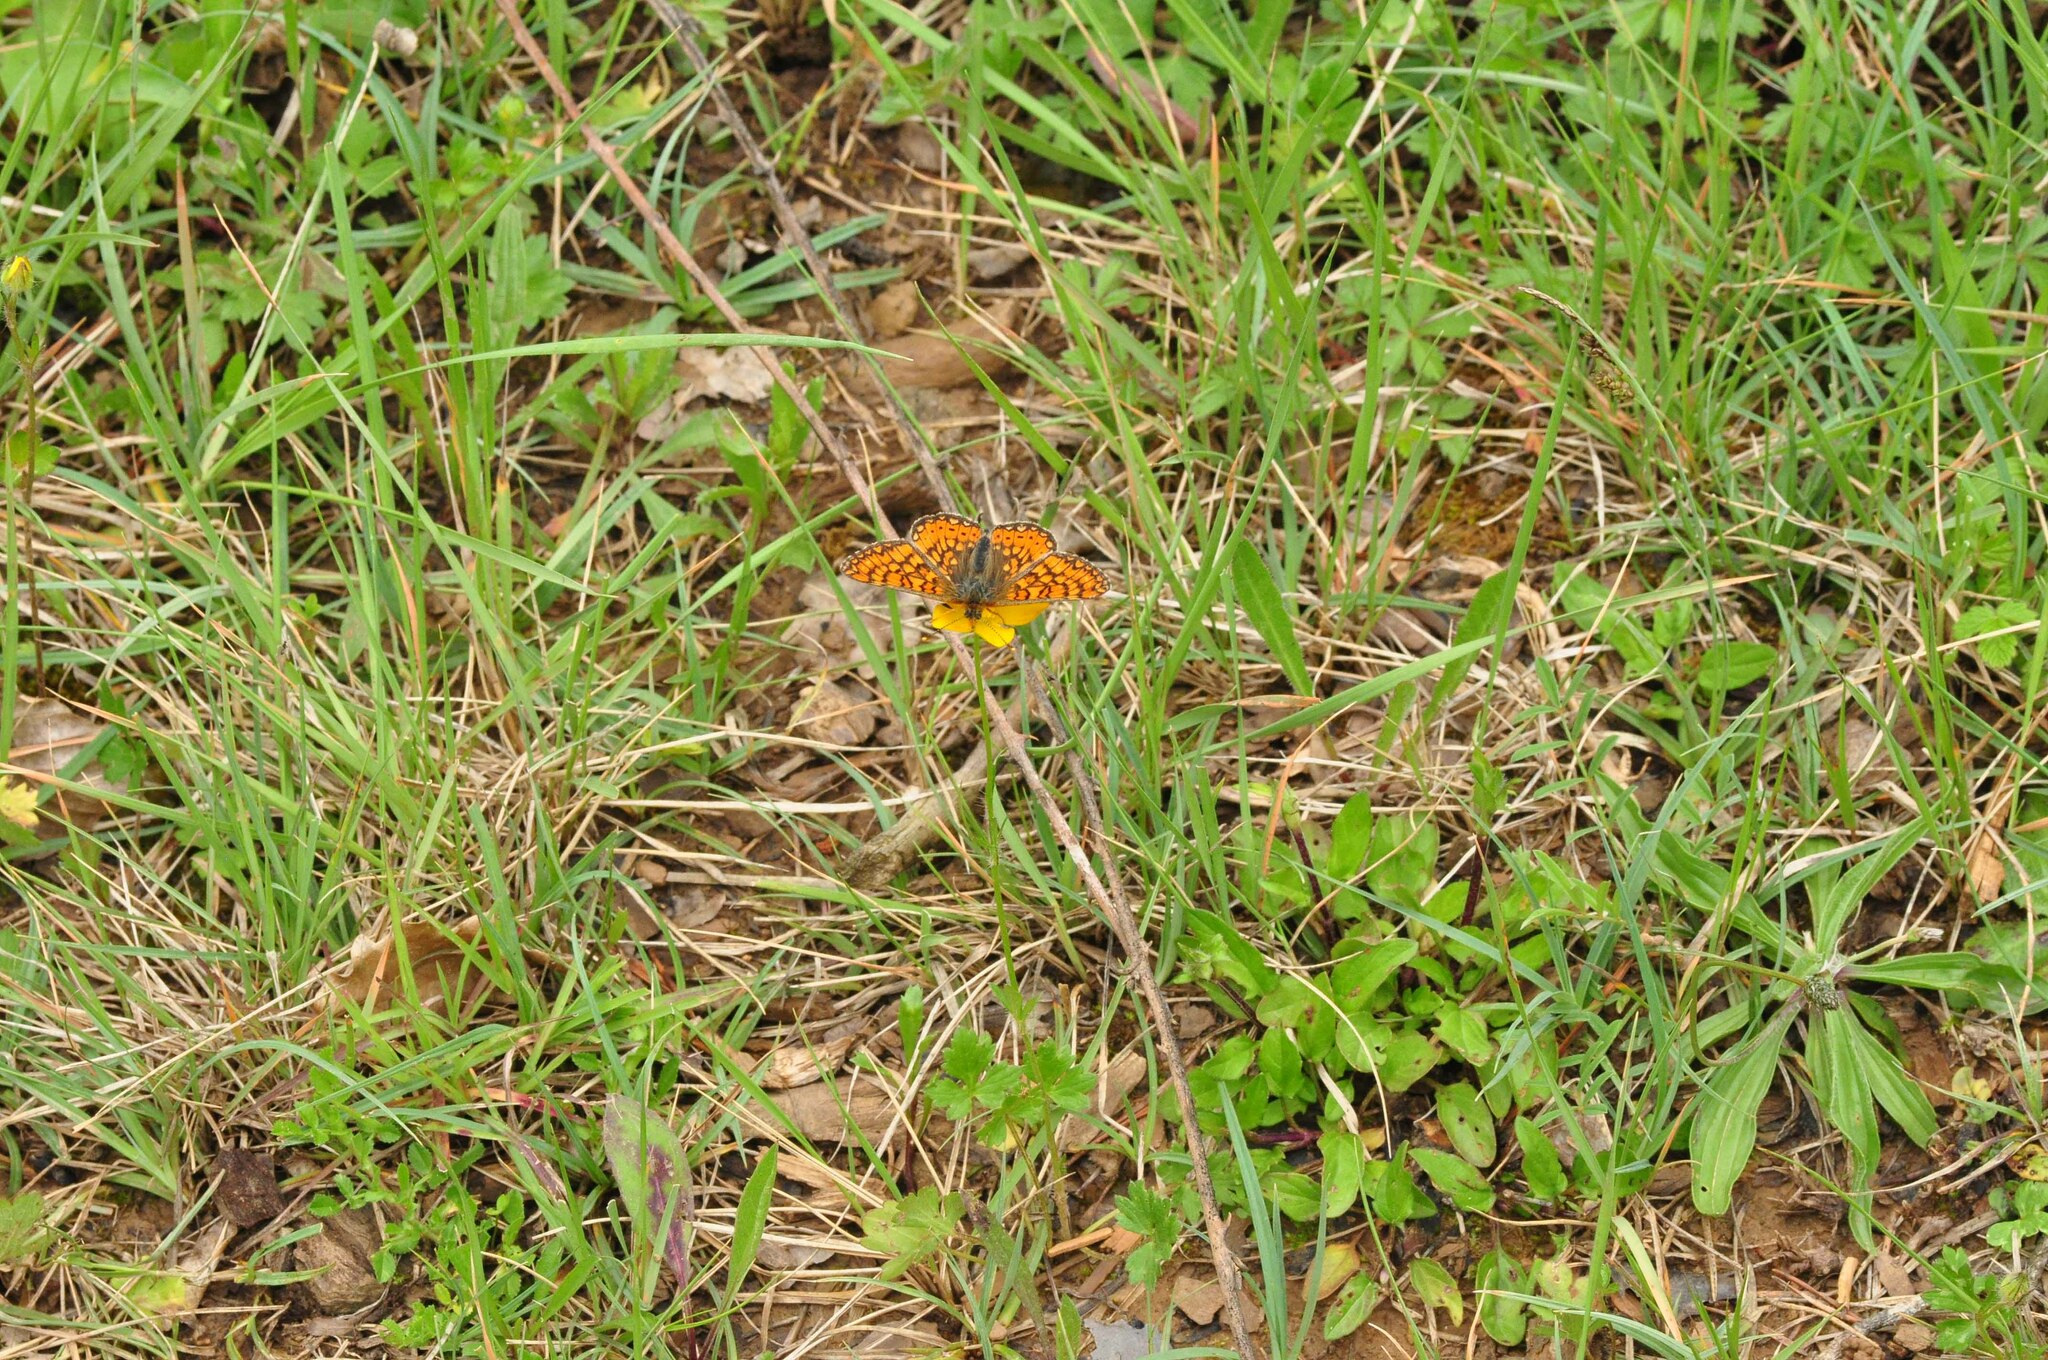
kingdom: Animalia
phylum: Arthropoda
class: Insecta
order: Lepidoptera
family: Nymphalidae
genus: Euphydryas
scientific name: Euphydryas aurinia
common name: Marsh fritillary
